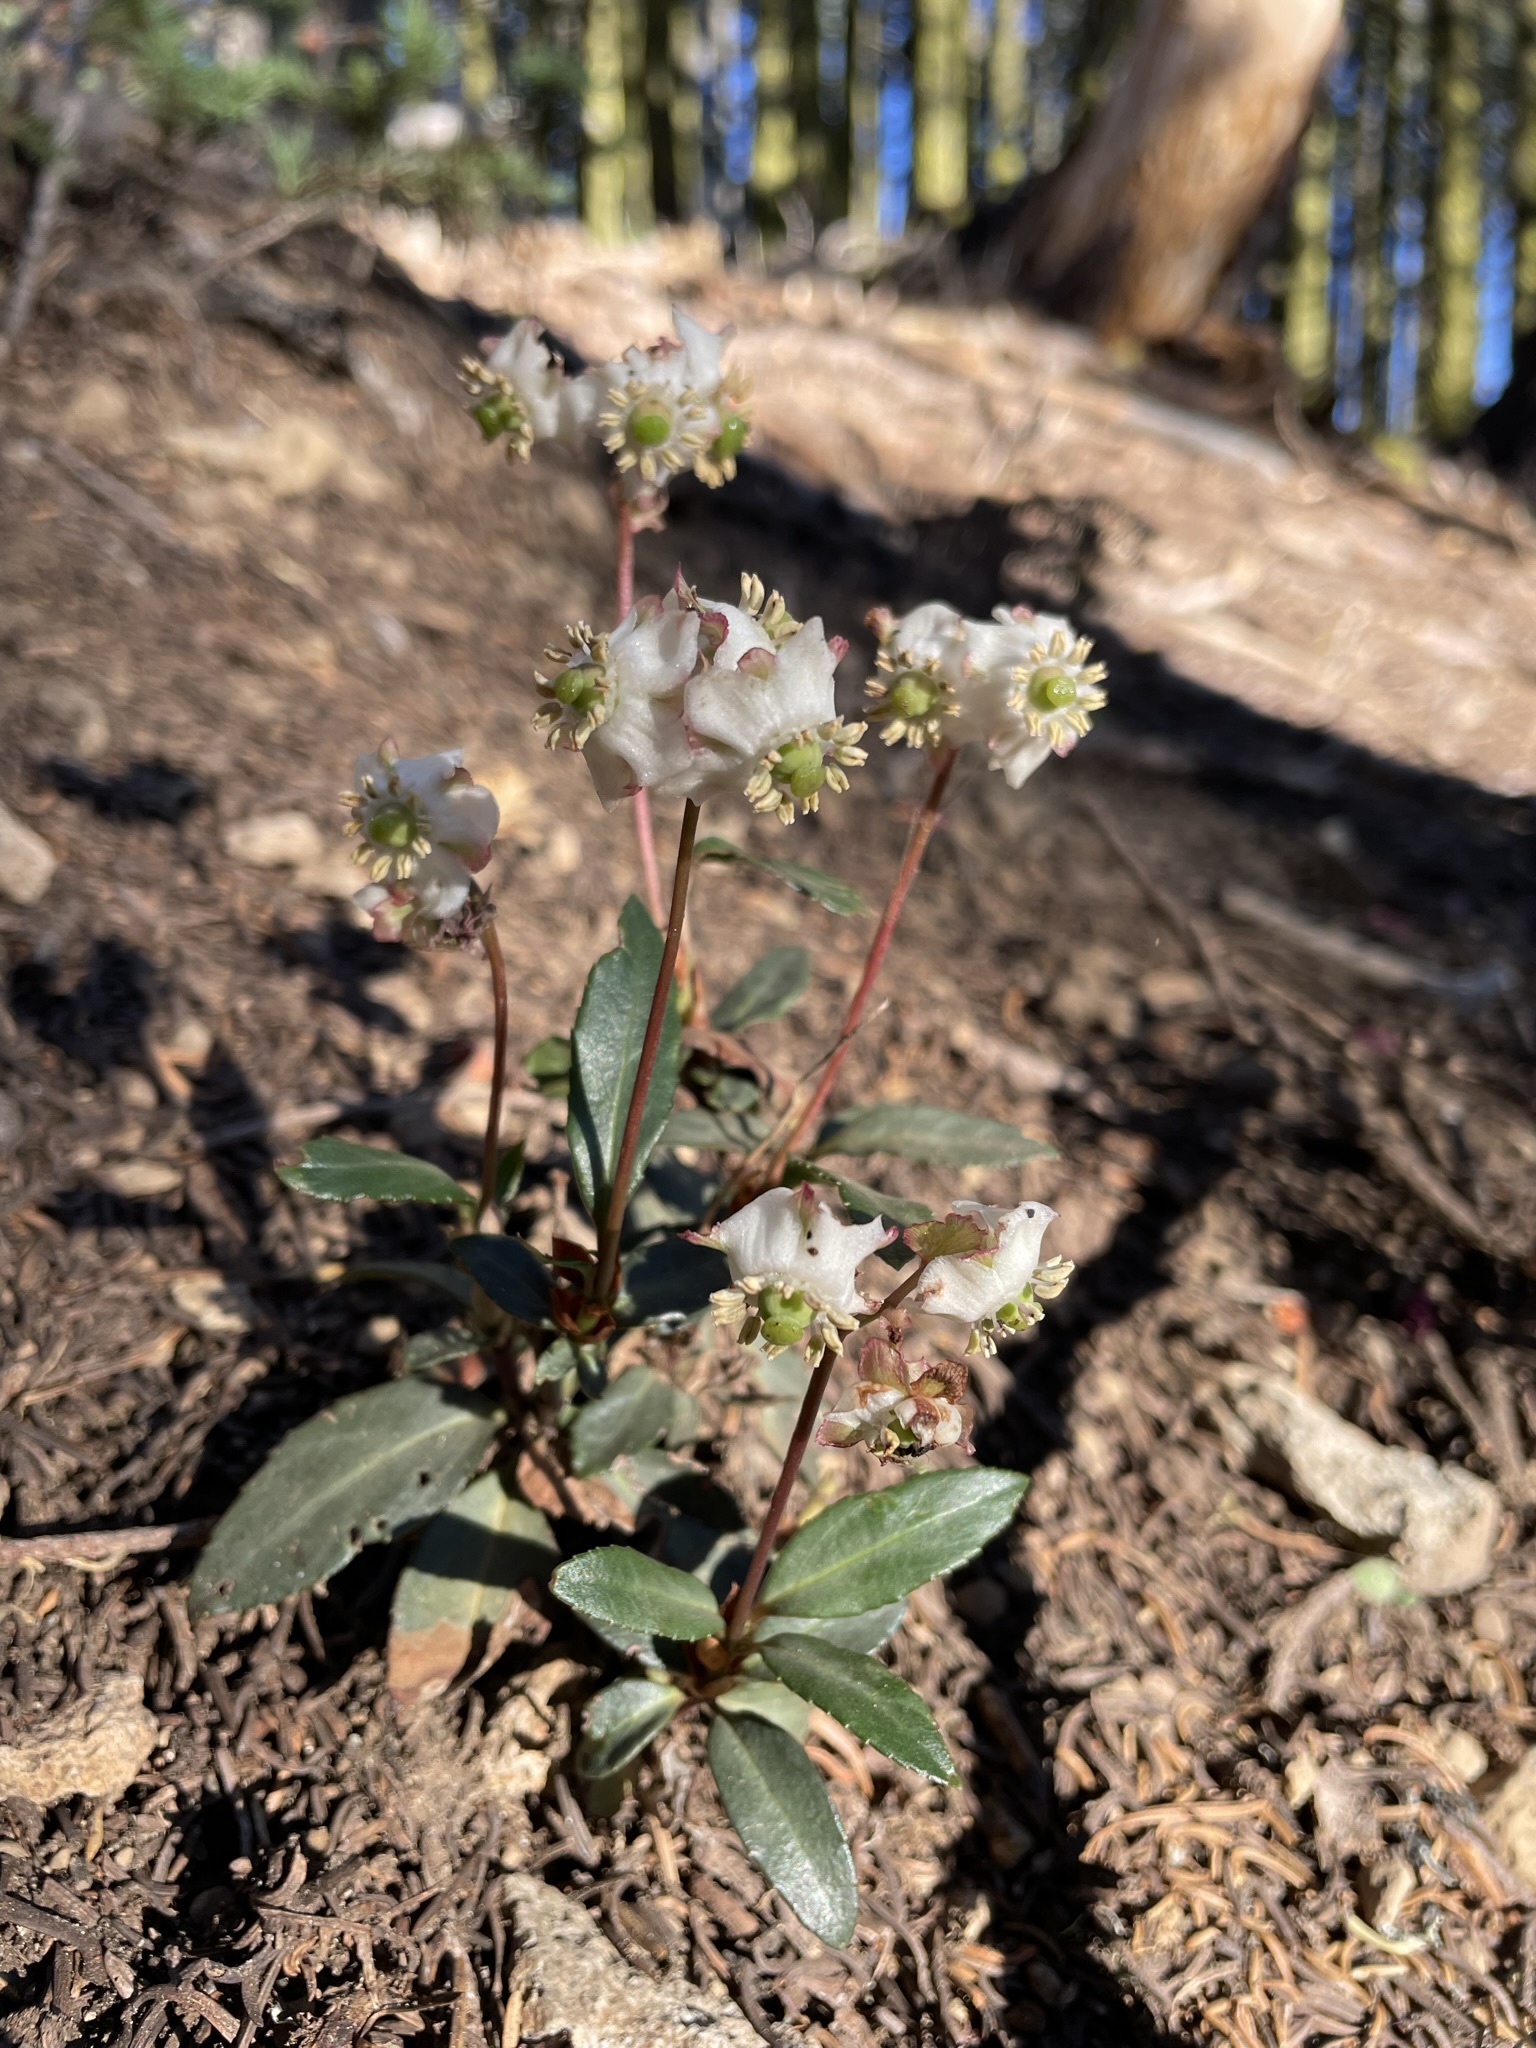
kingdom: Plantae
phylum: Tracheophyta
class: Magnoliopsida
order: Ericales
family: Ericaceae
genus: Chimaphila
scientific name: Chimaphila menziesii
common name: Menzies' pipsissewa
